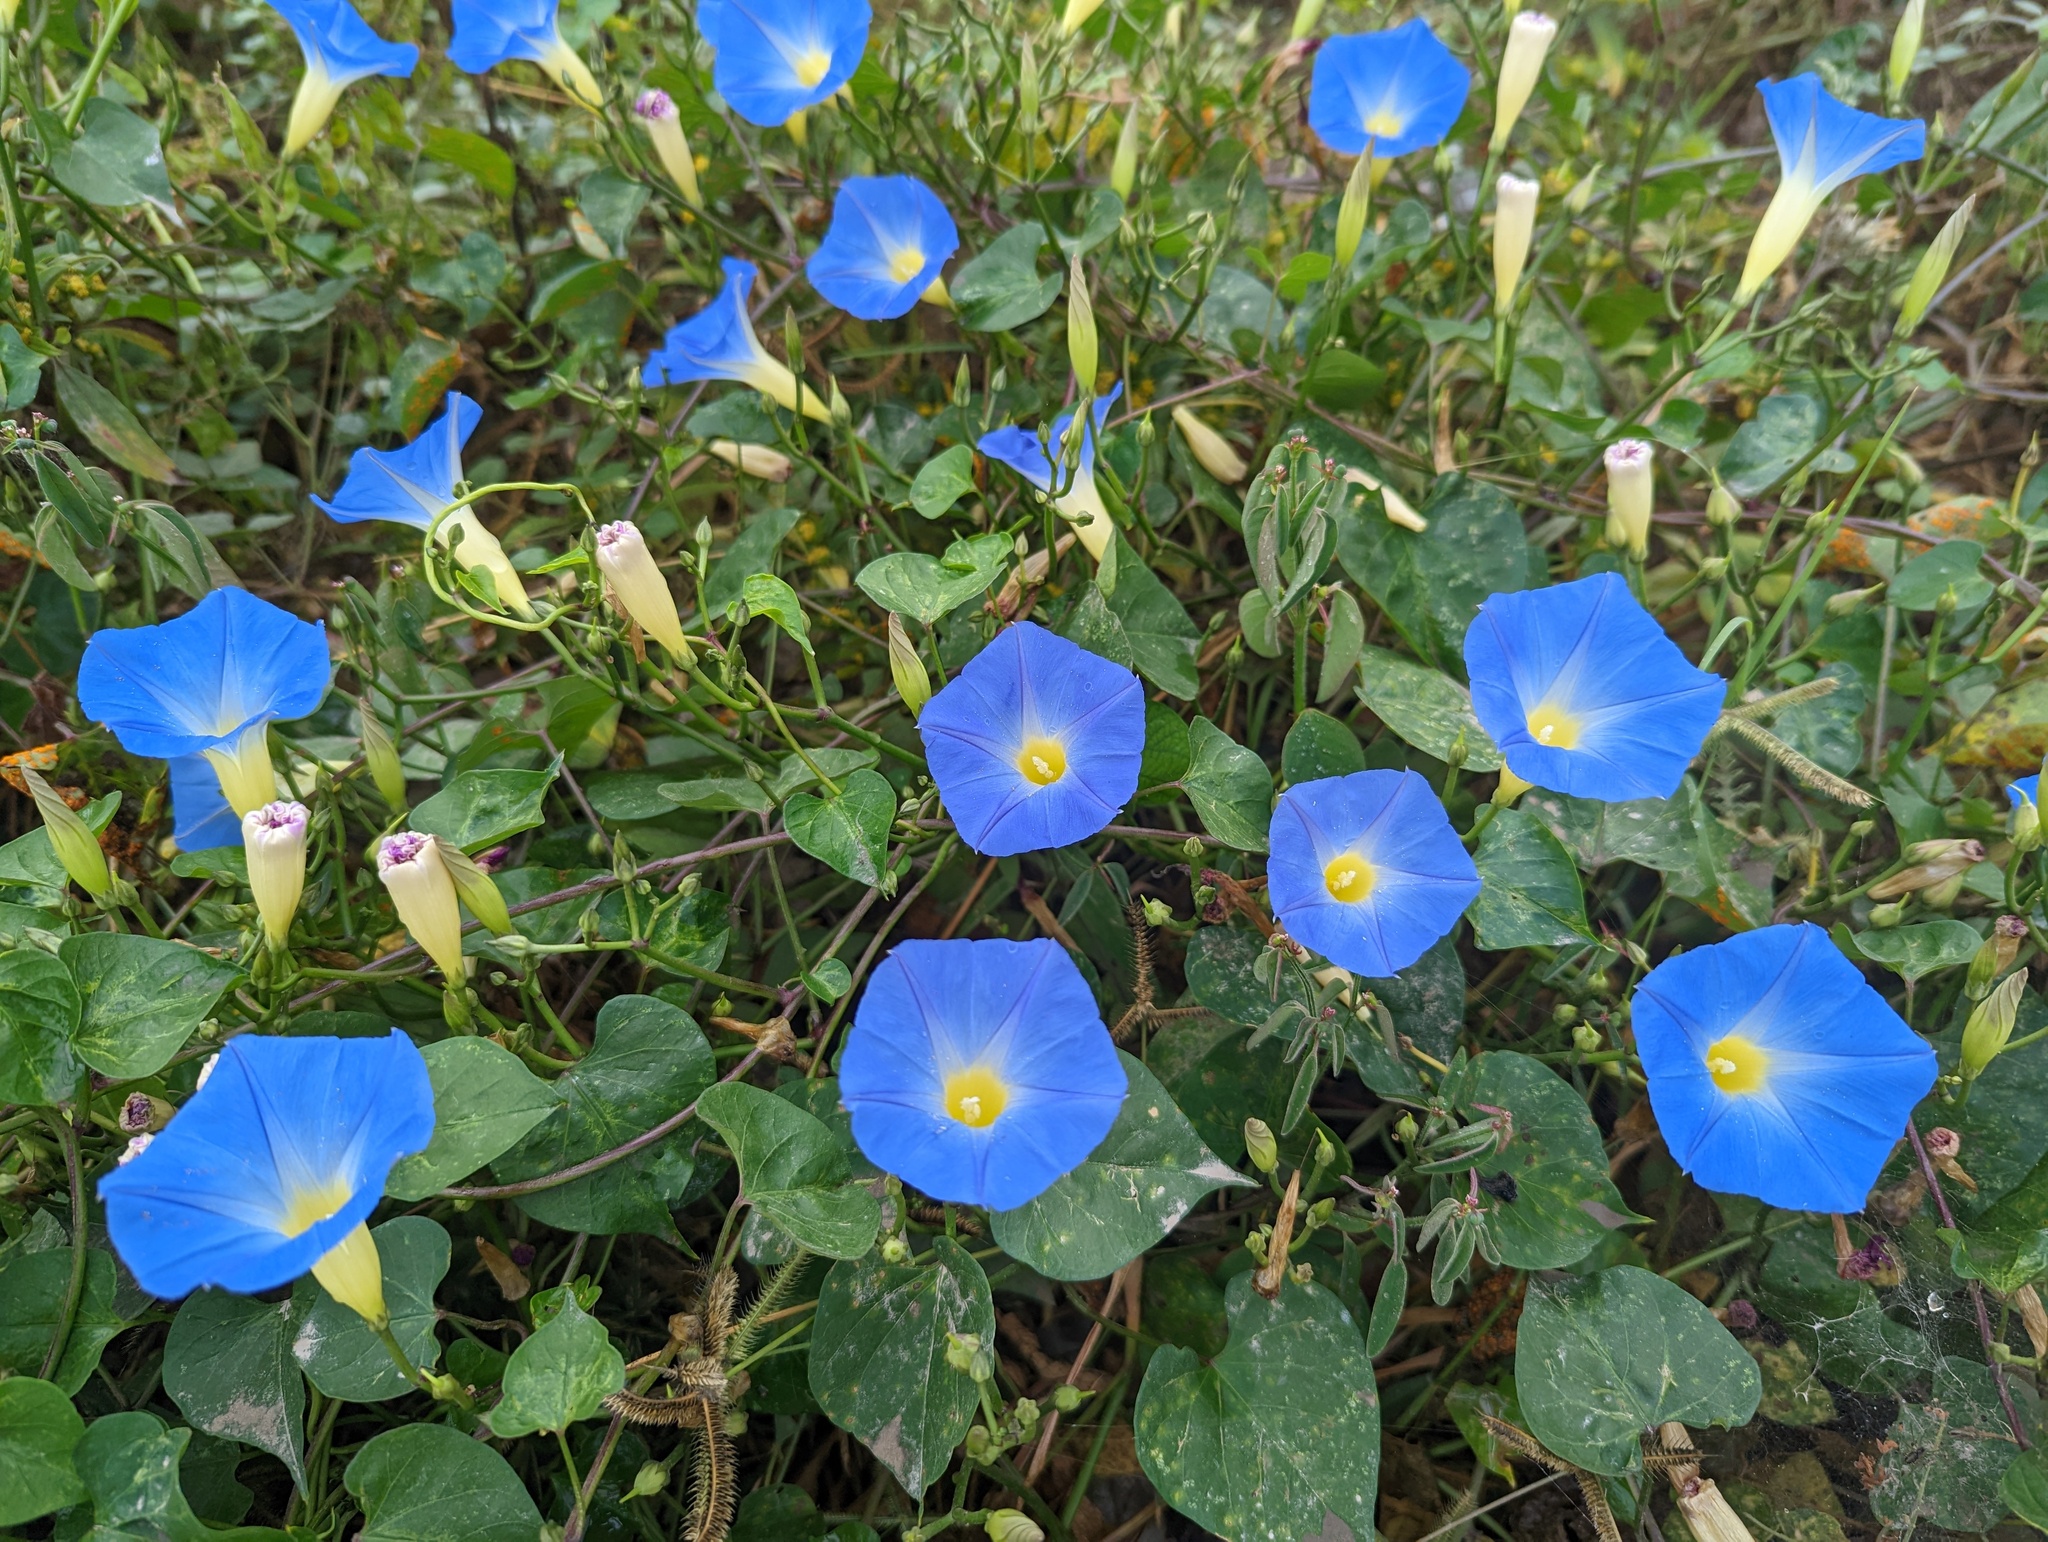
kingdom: Plantae
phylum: Tracheophyta
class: Magnoliopsida
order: Solanales
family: Convolvulaceae
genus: Ipomoea
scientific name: Ipomoea tricolor
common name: Morning-glory
